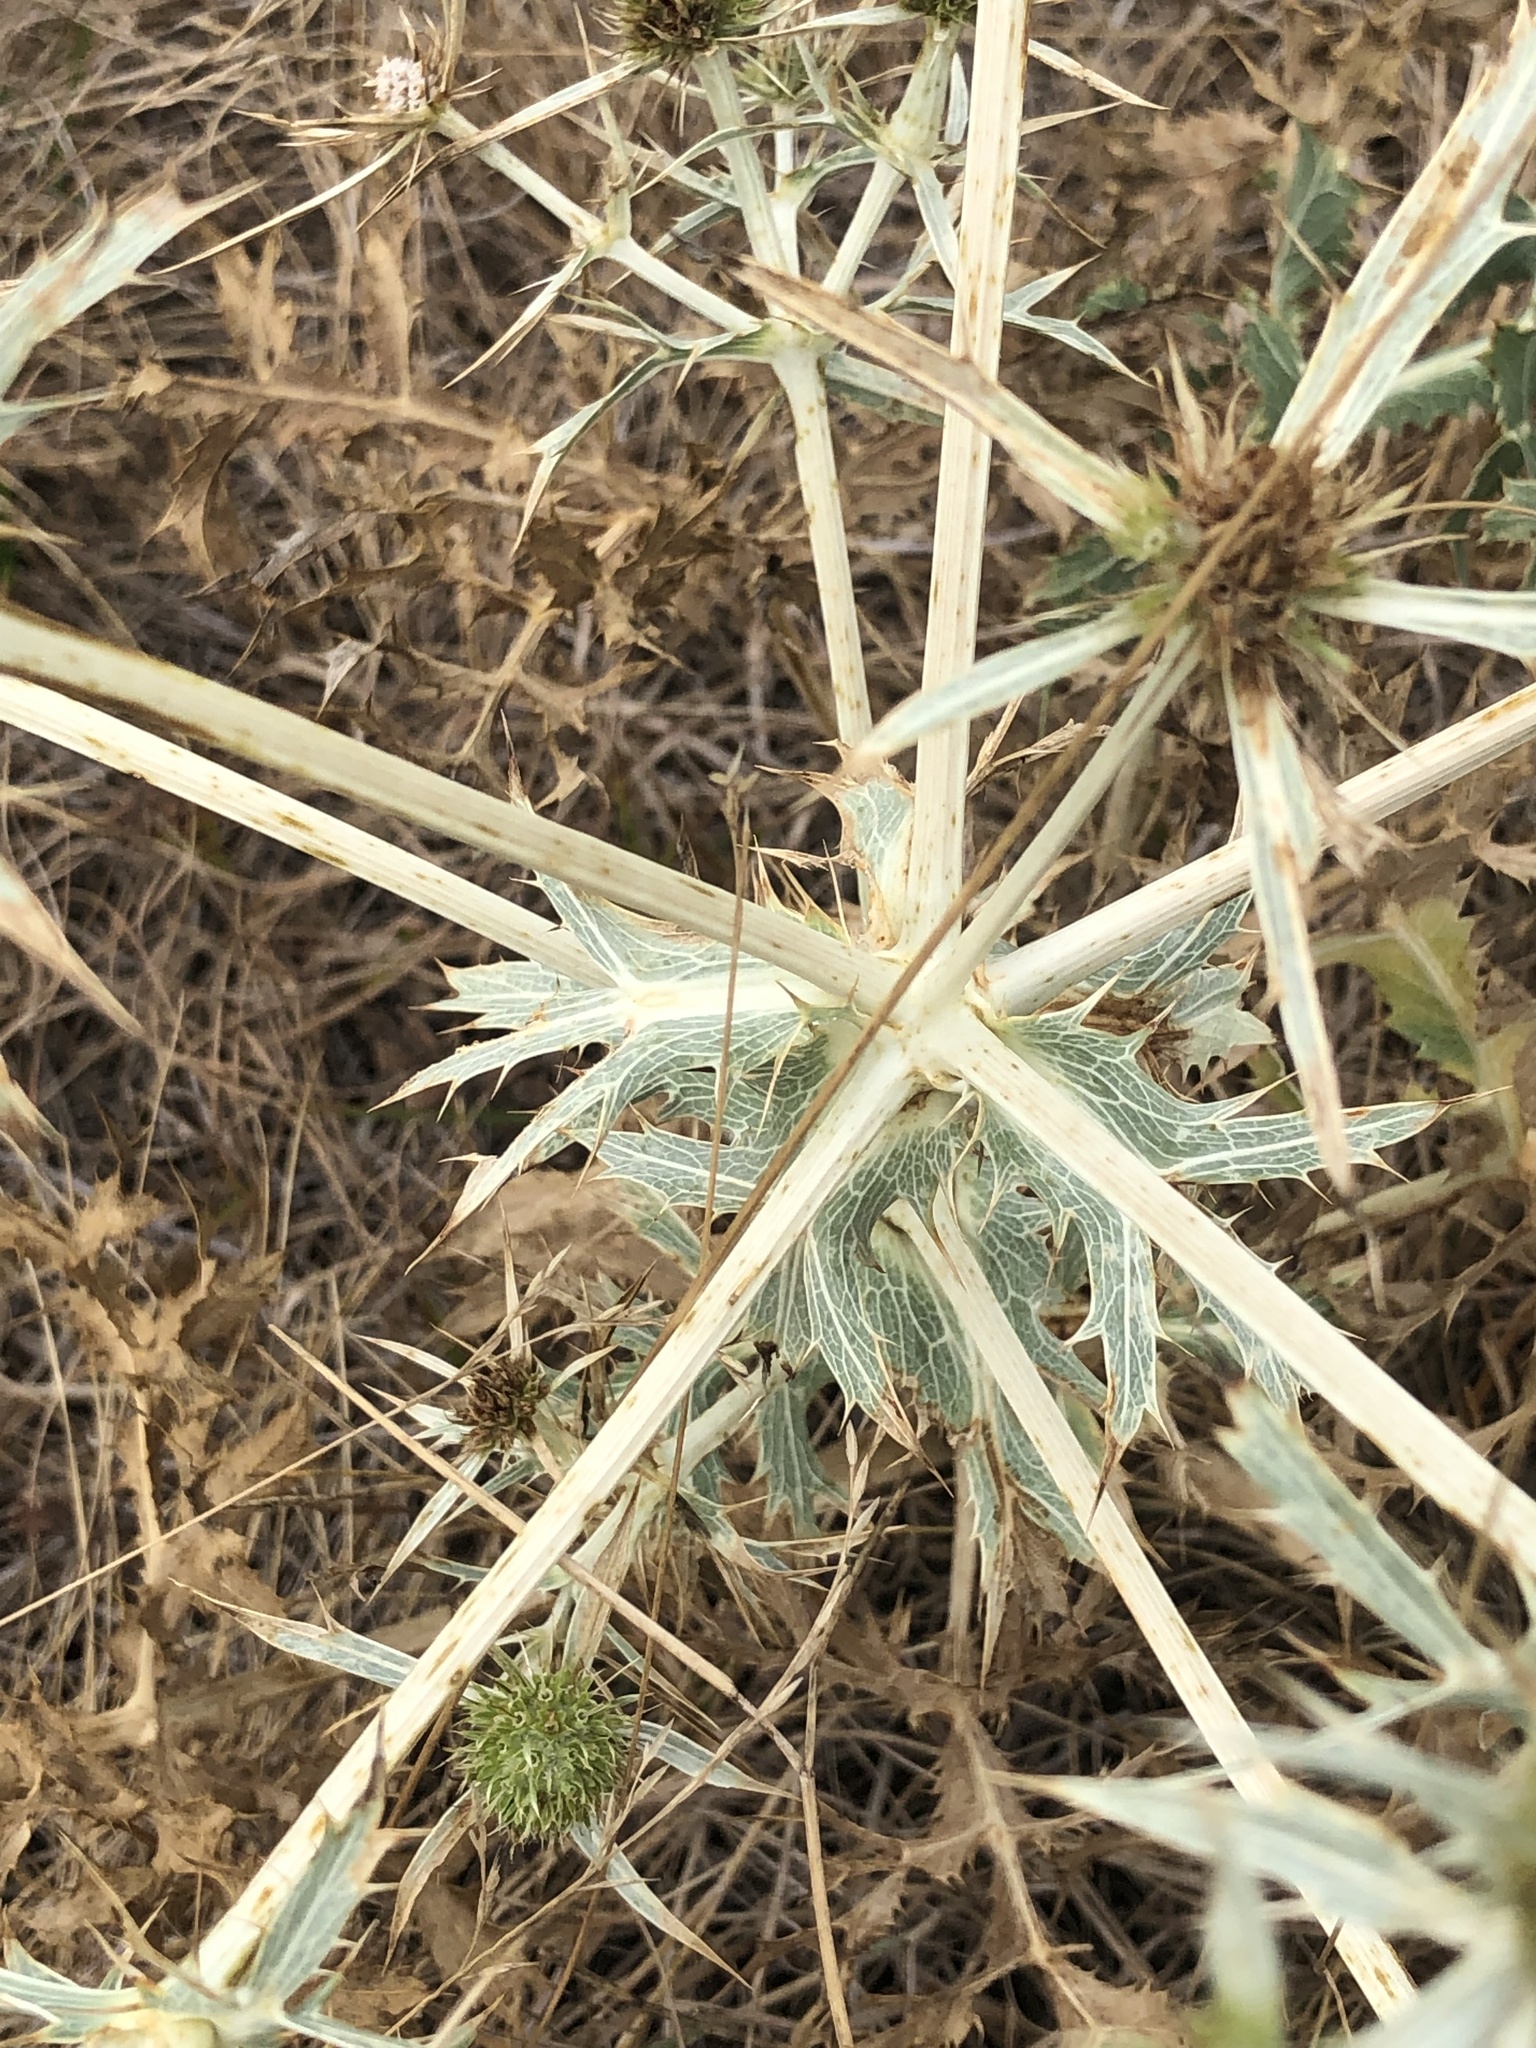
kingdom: Plantae
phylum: Tracheophyta
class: Magnoliopsida
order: Apiales
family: Apiaceae
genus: Eryngium
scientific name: Eryngium campestre
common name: Field eryngo
